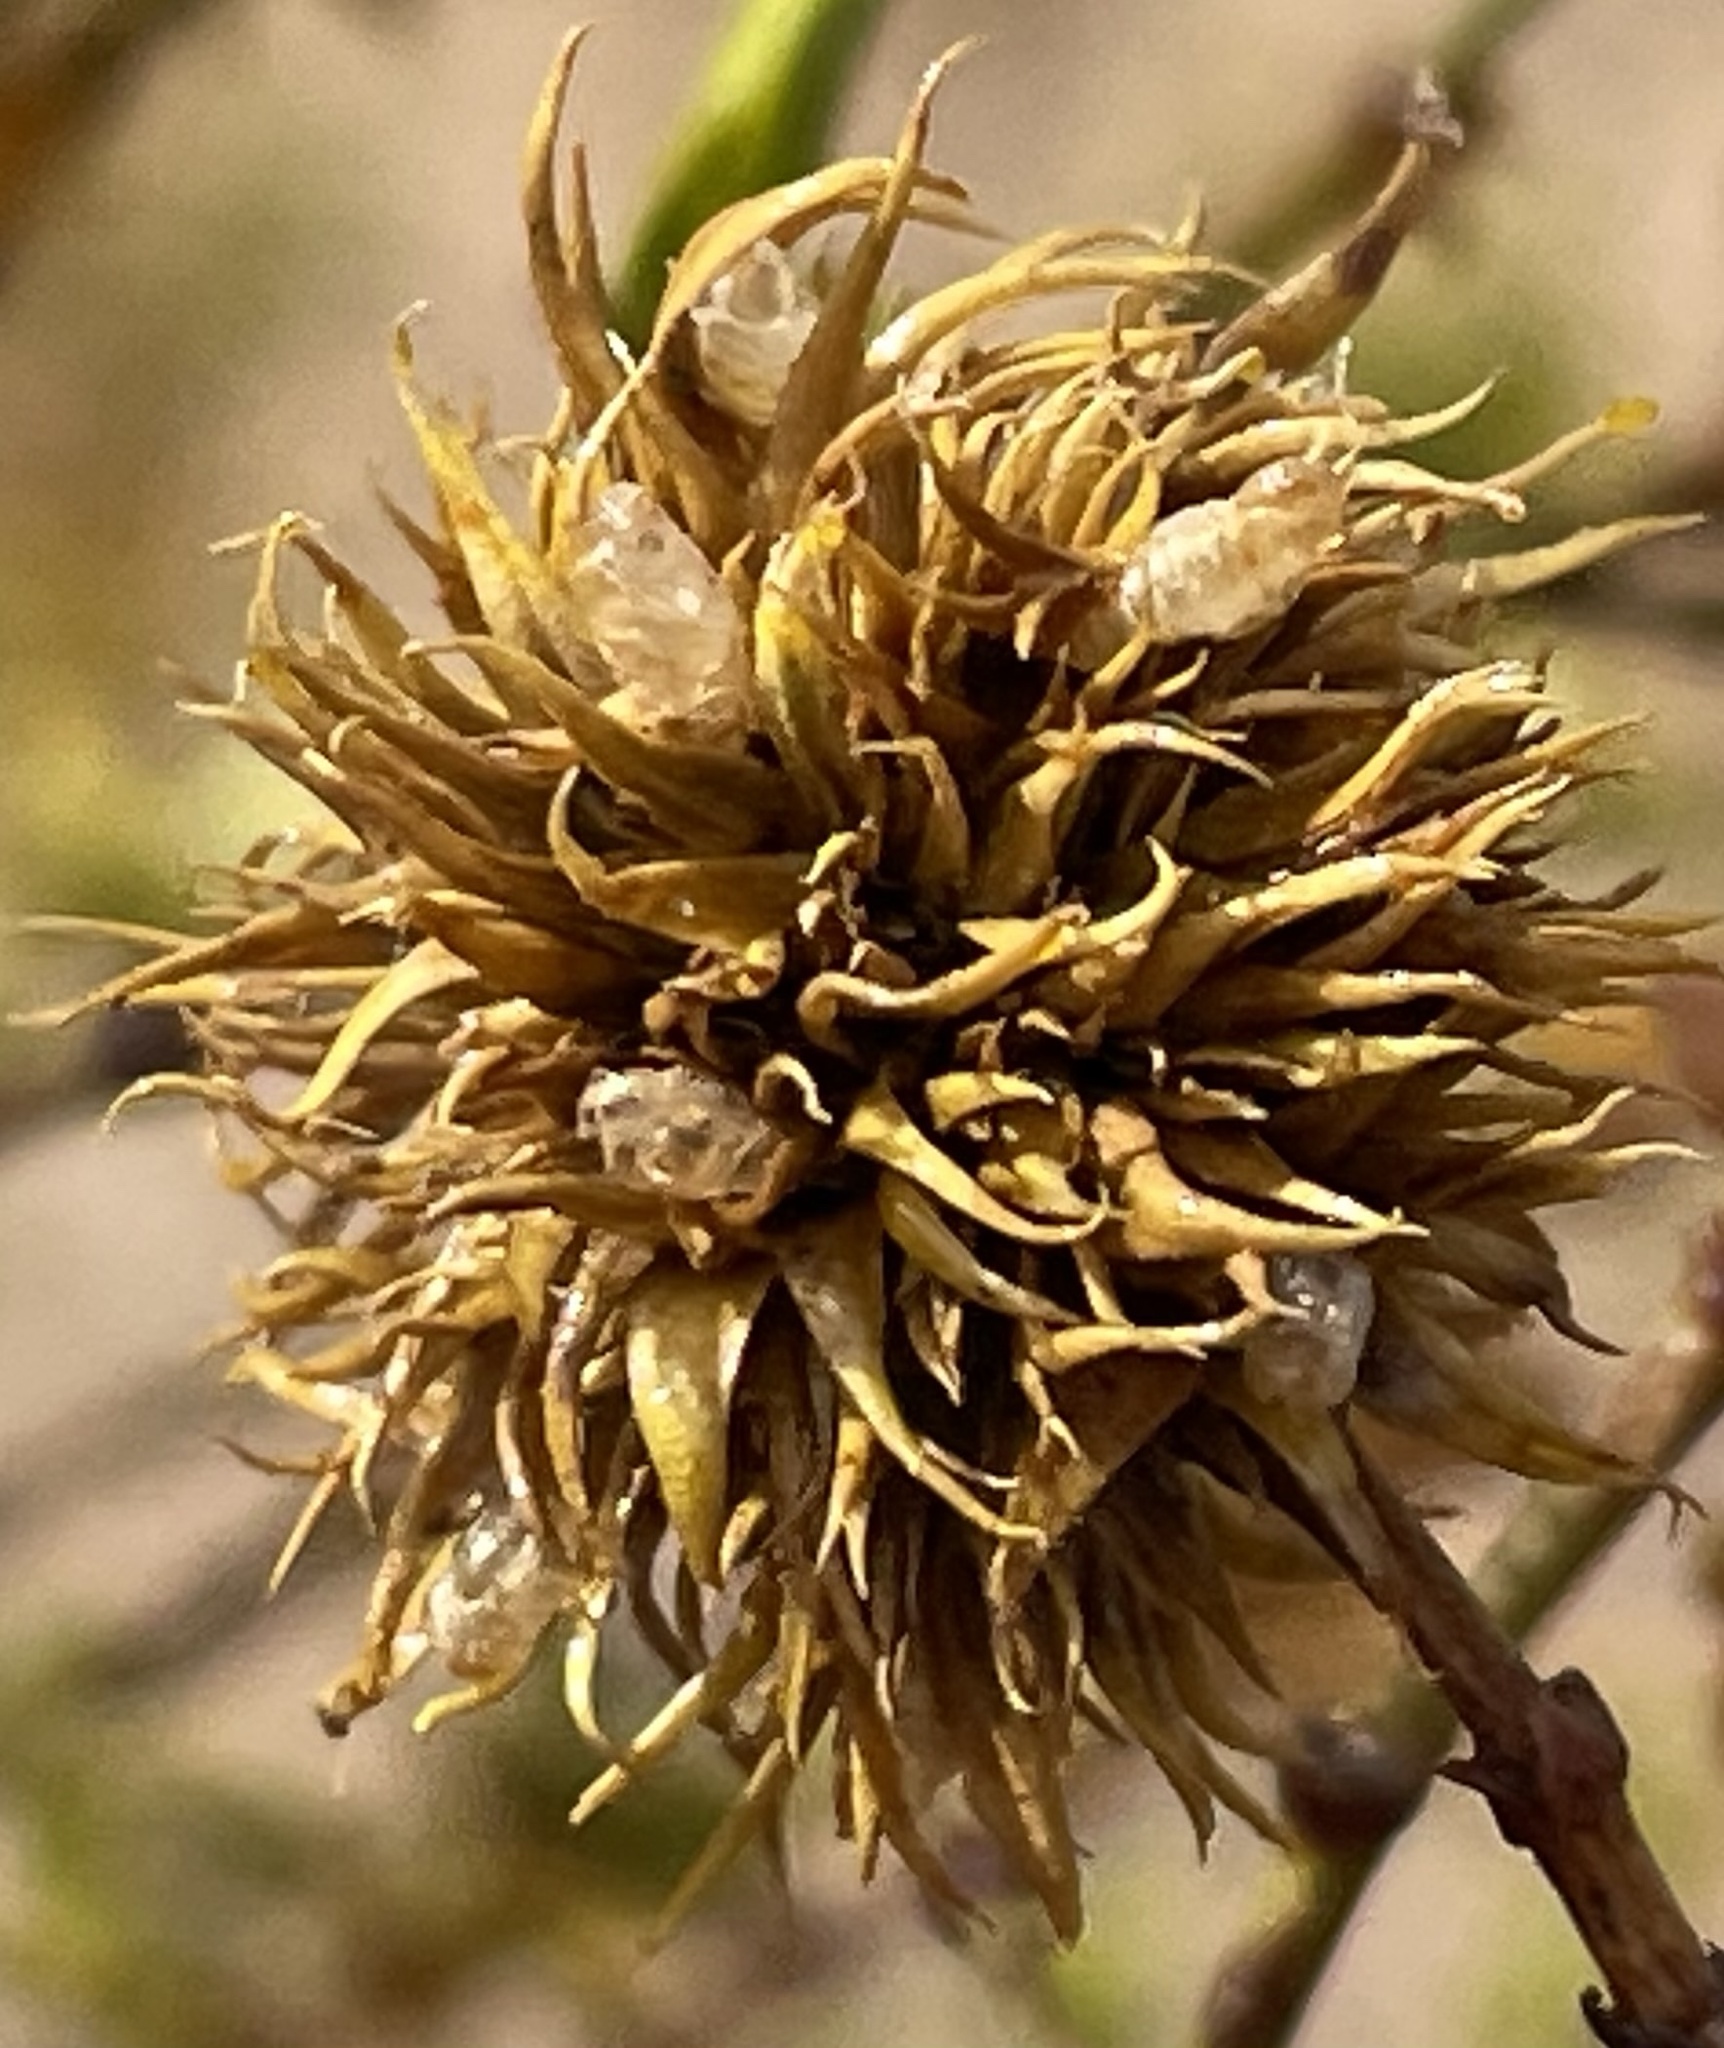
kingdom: Animalia
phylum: Arthropoda
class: Insecta
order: Diptera
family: Cecidomyiidae
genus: Asphondylia
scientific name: Asphondylia auripila
